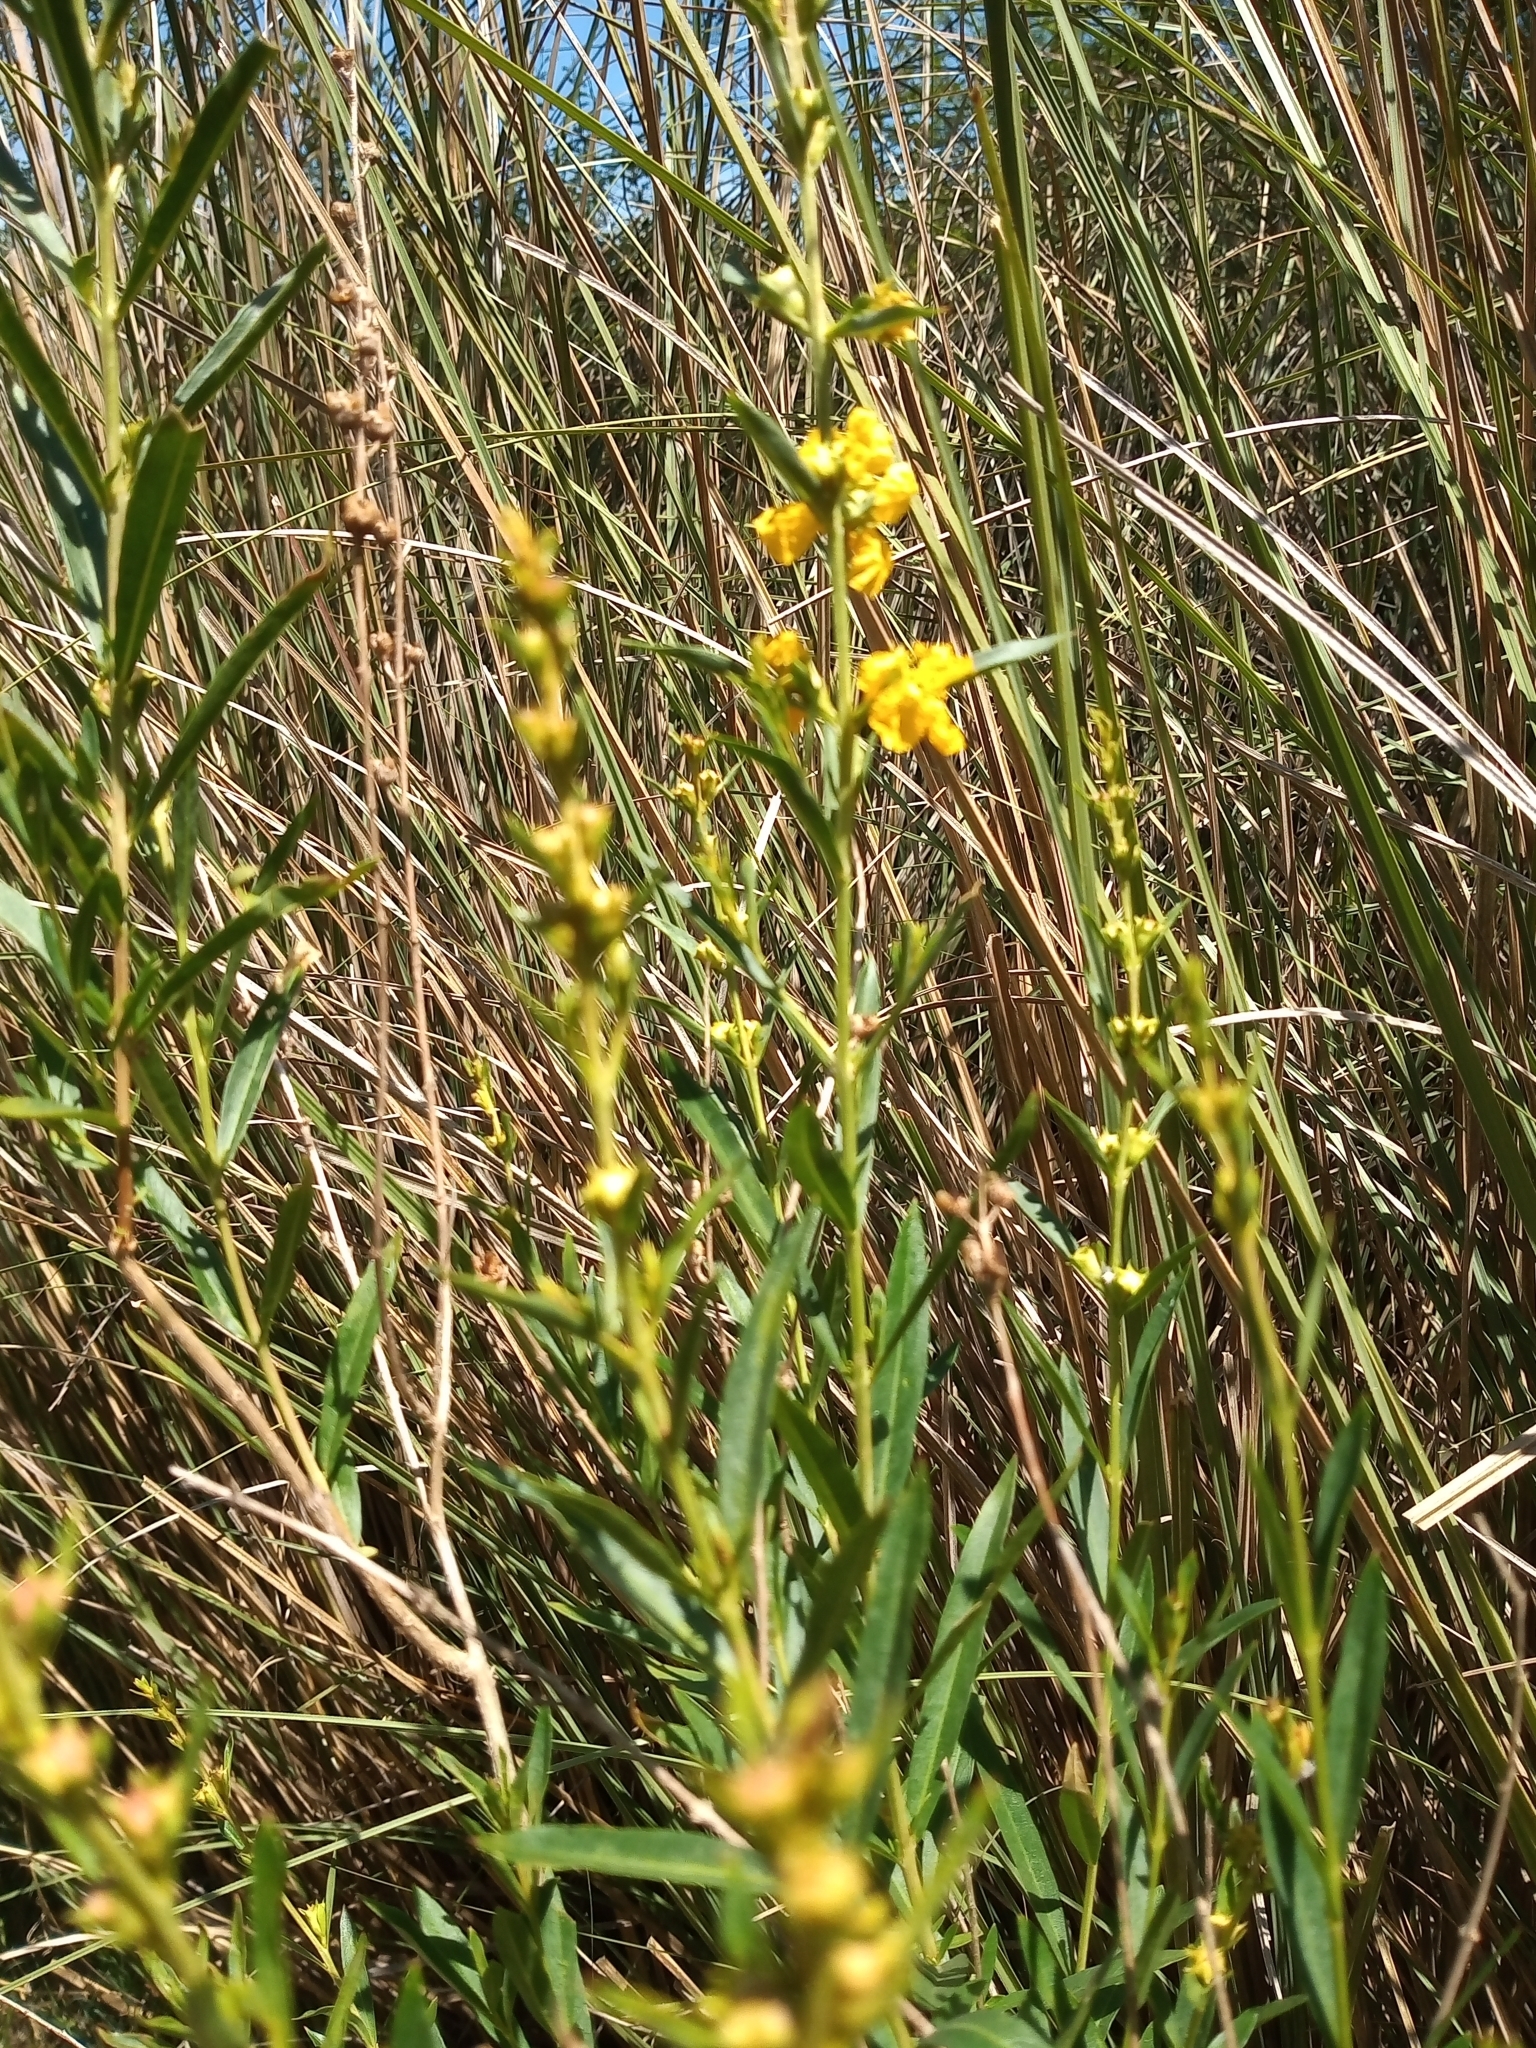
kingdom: Plantae
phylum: Tracheophyta
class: Magnoliopsida
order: Myrtales
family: Lythraceae
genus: Heimia
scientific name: Heimia salicifolia
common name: Willow-leaf heimia
